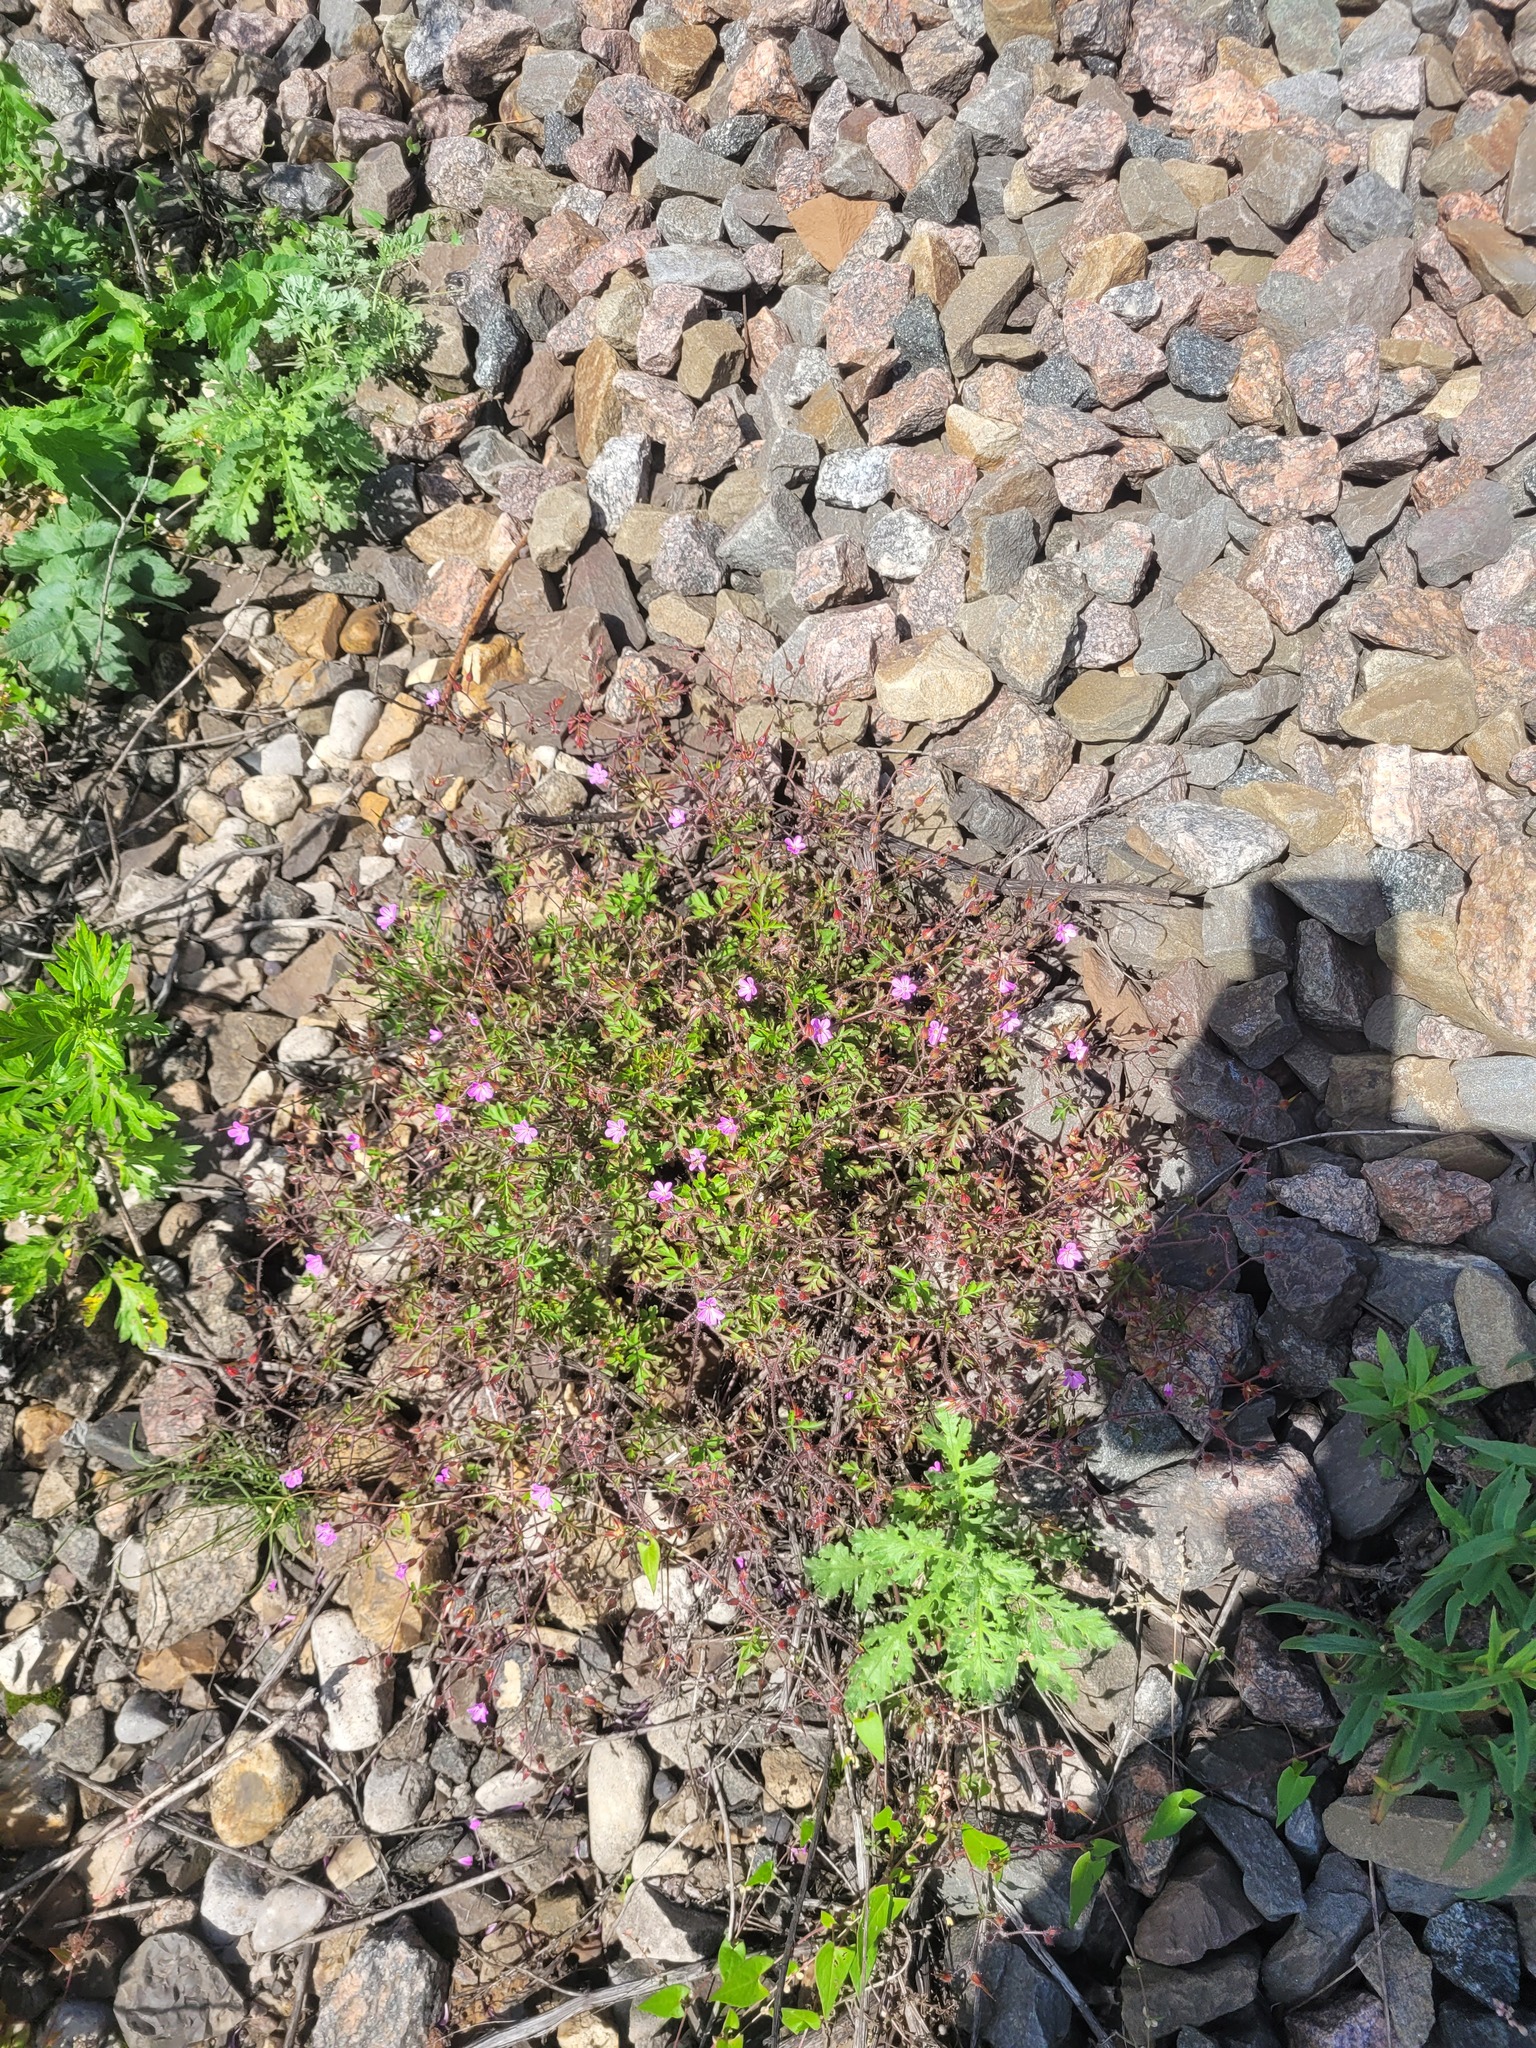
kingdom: Plantae
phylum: Tracheophyta
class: Magnoliopsida
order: Geraniales
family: Geraniaceae
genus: Geranium
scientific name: Geranium robertianum
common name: Herb-robert
